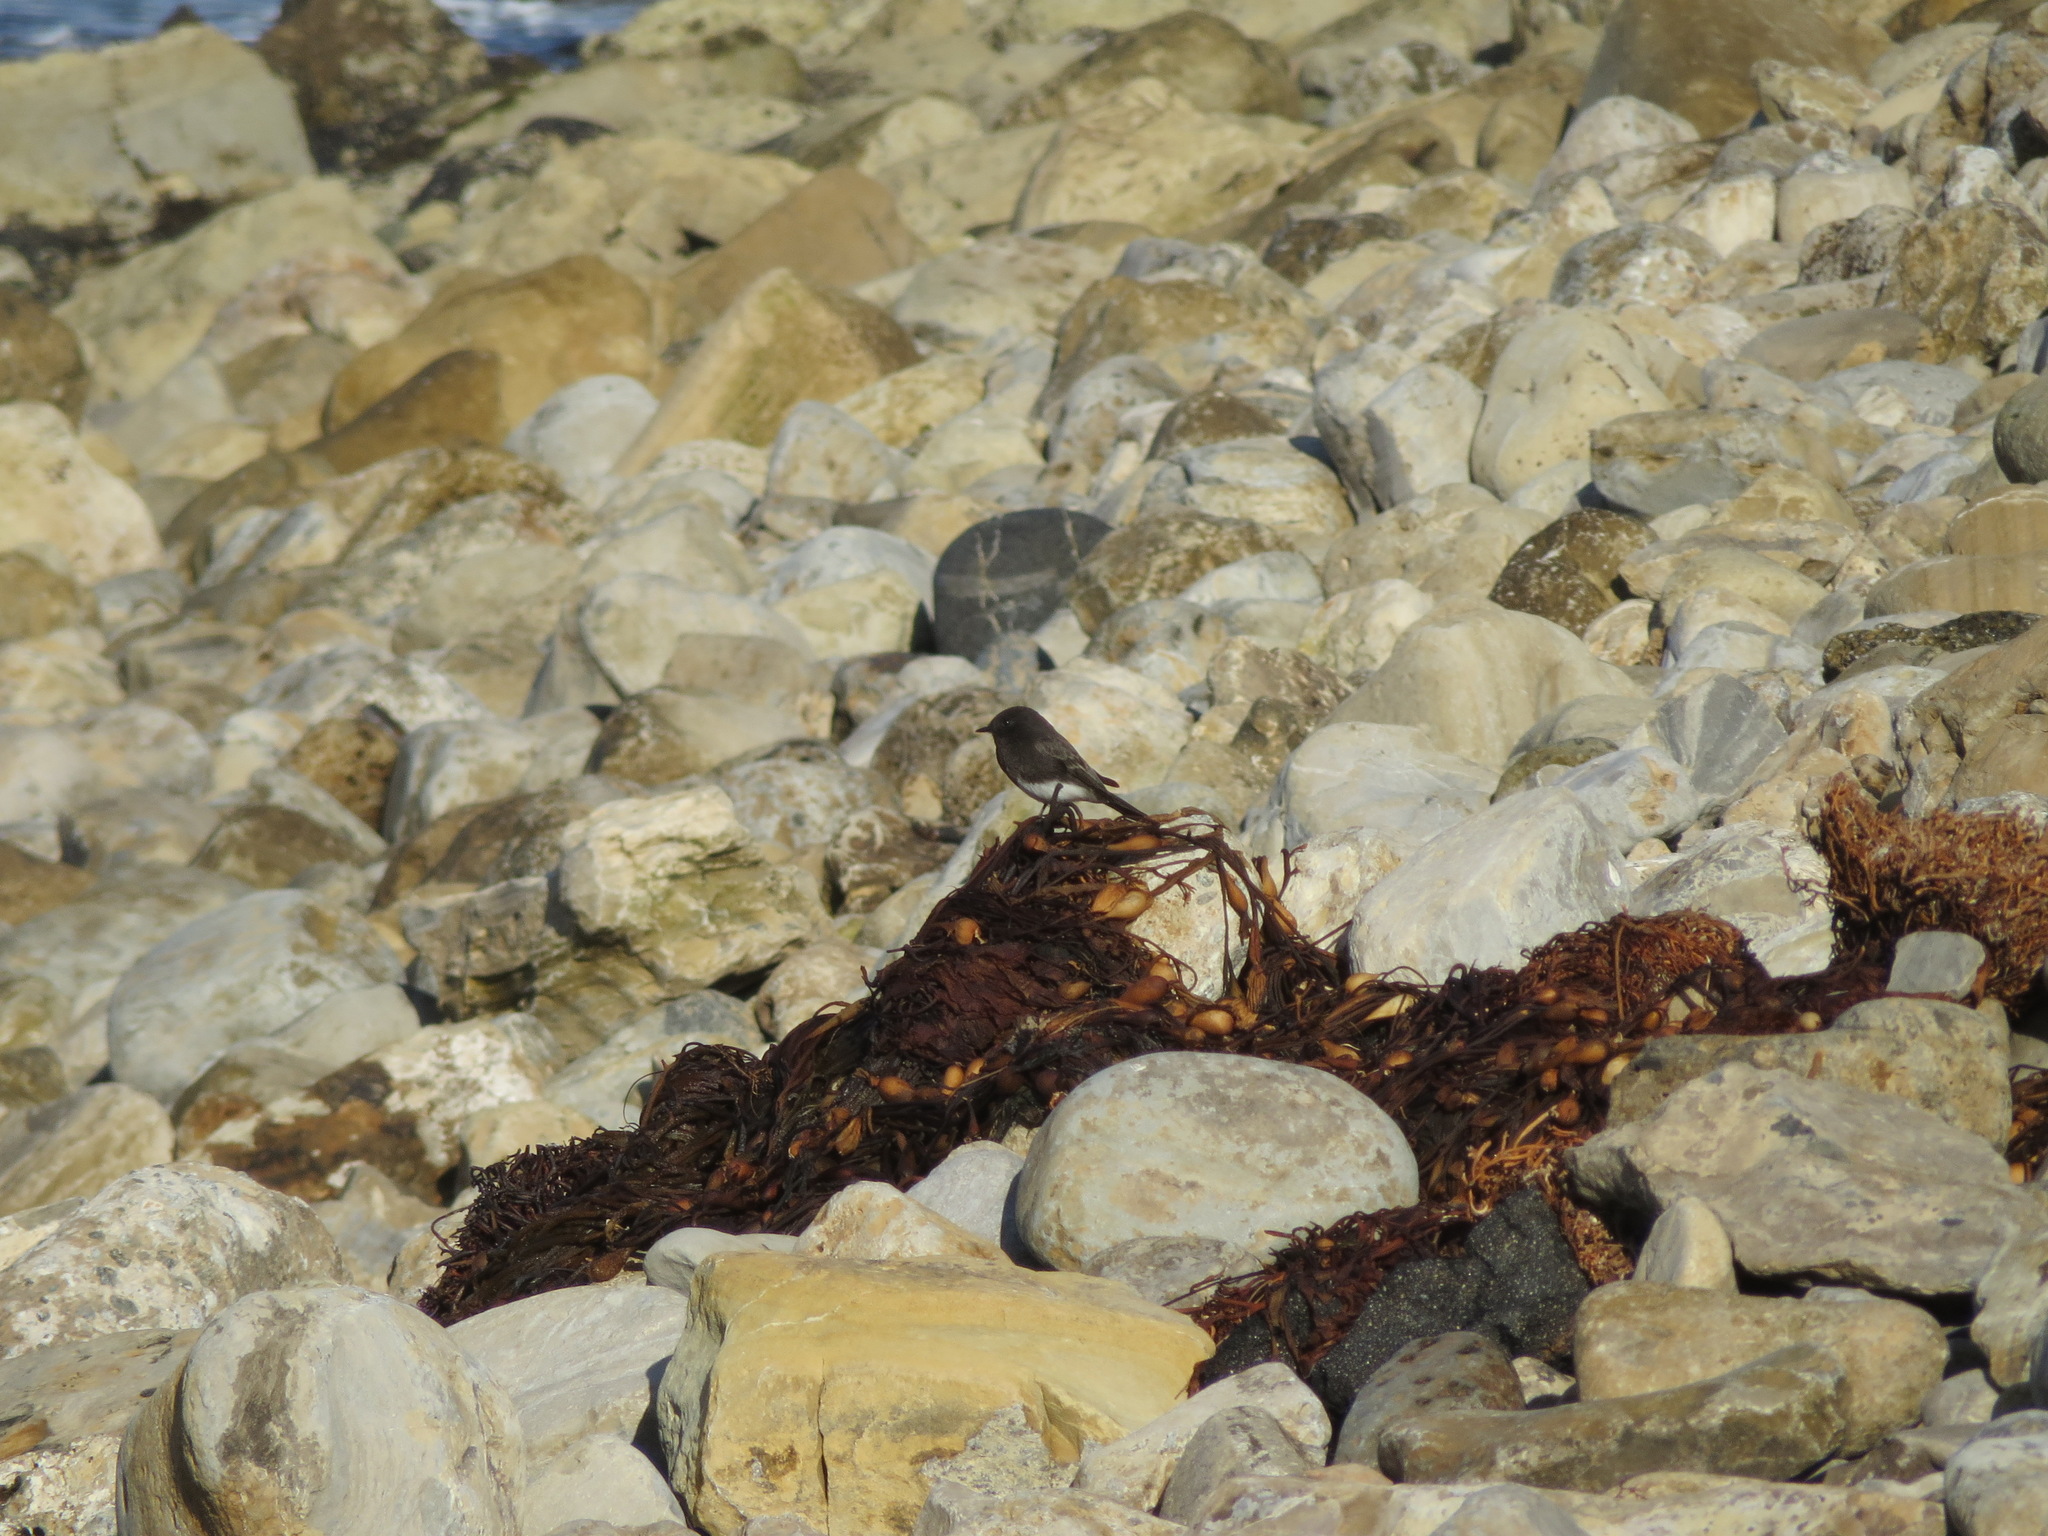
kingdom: Animalia
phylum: Chordata
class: Aves
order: Passeriformes
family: Tyrannidae
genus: Sayornis
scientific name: Sayornis nigricans
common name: Black phoebe
